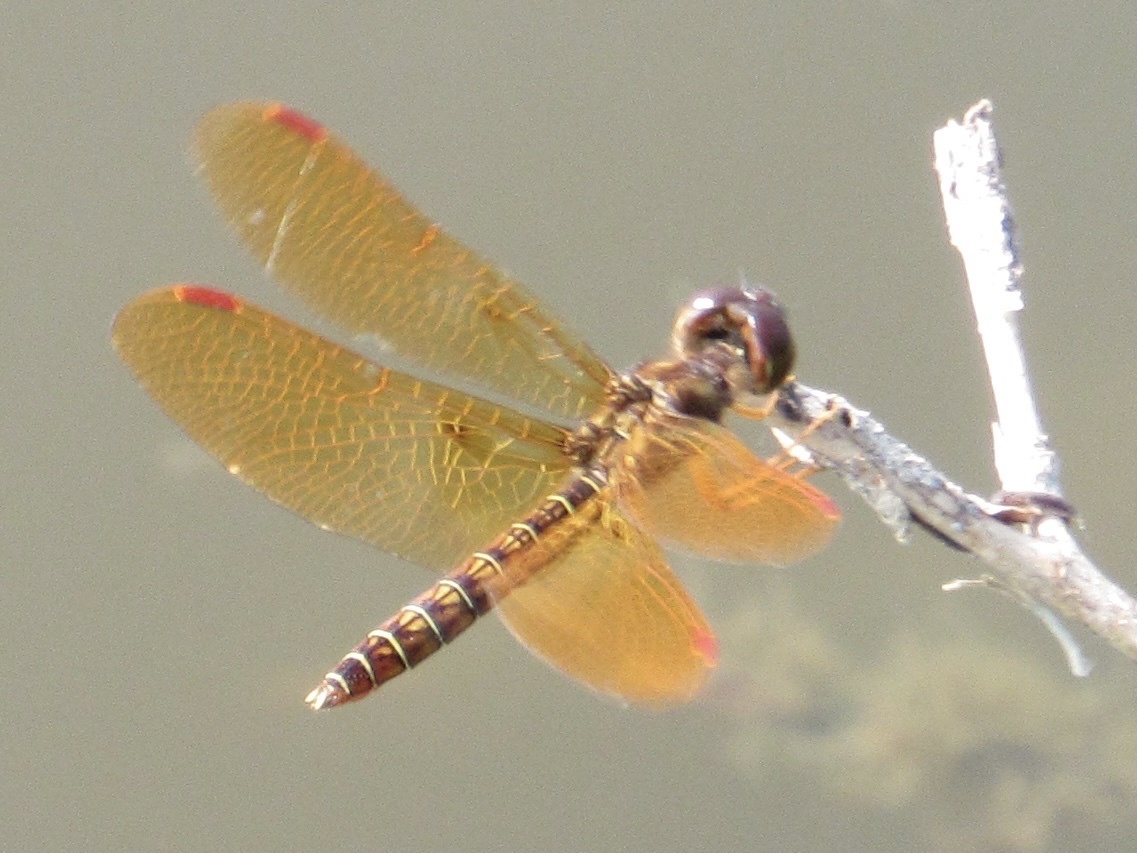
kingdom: Animalia
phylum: Arthropoda
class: Insecta
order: Odonata
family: Libellulidae
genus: Perithemis
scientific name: Perithemis tenera
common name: Eastern amberwing
